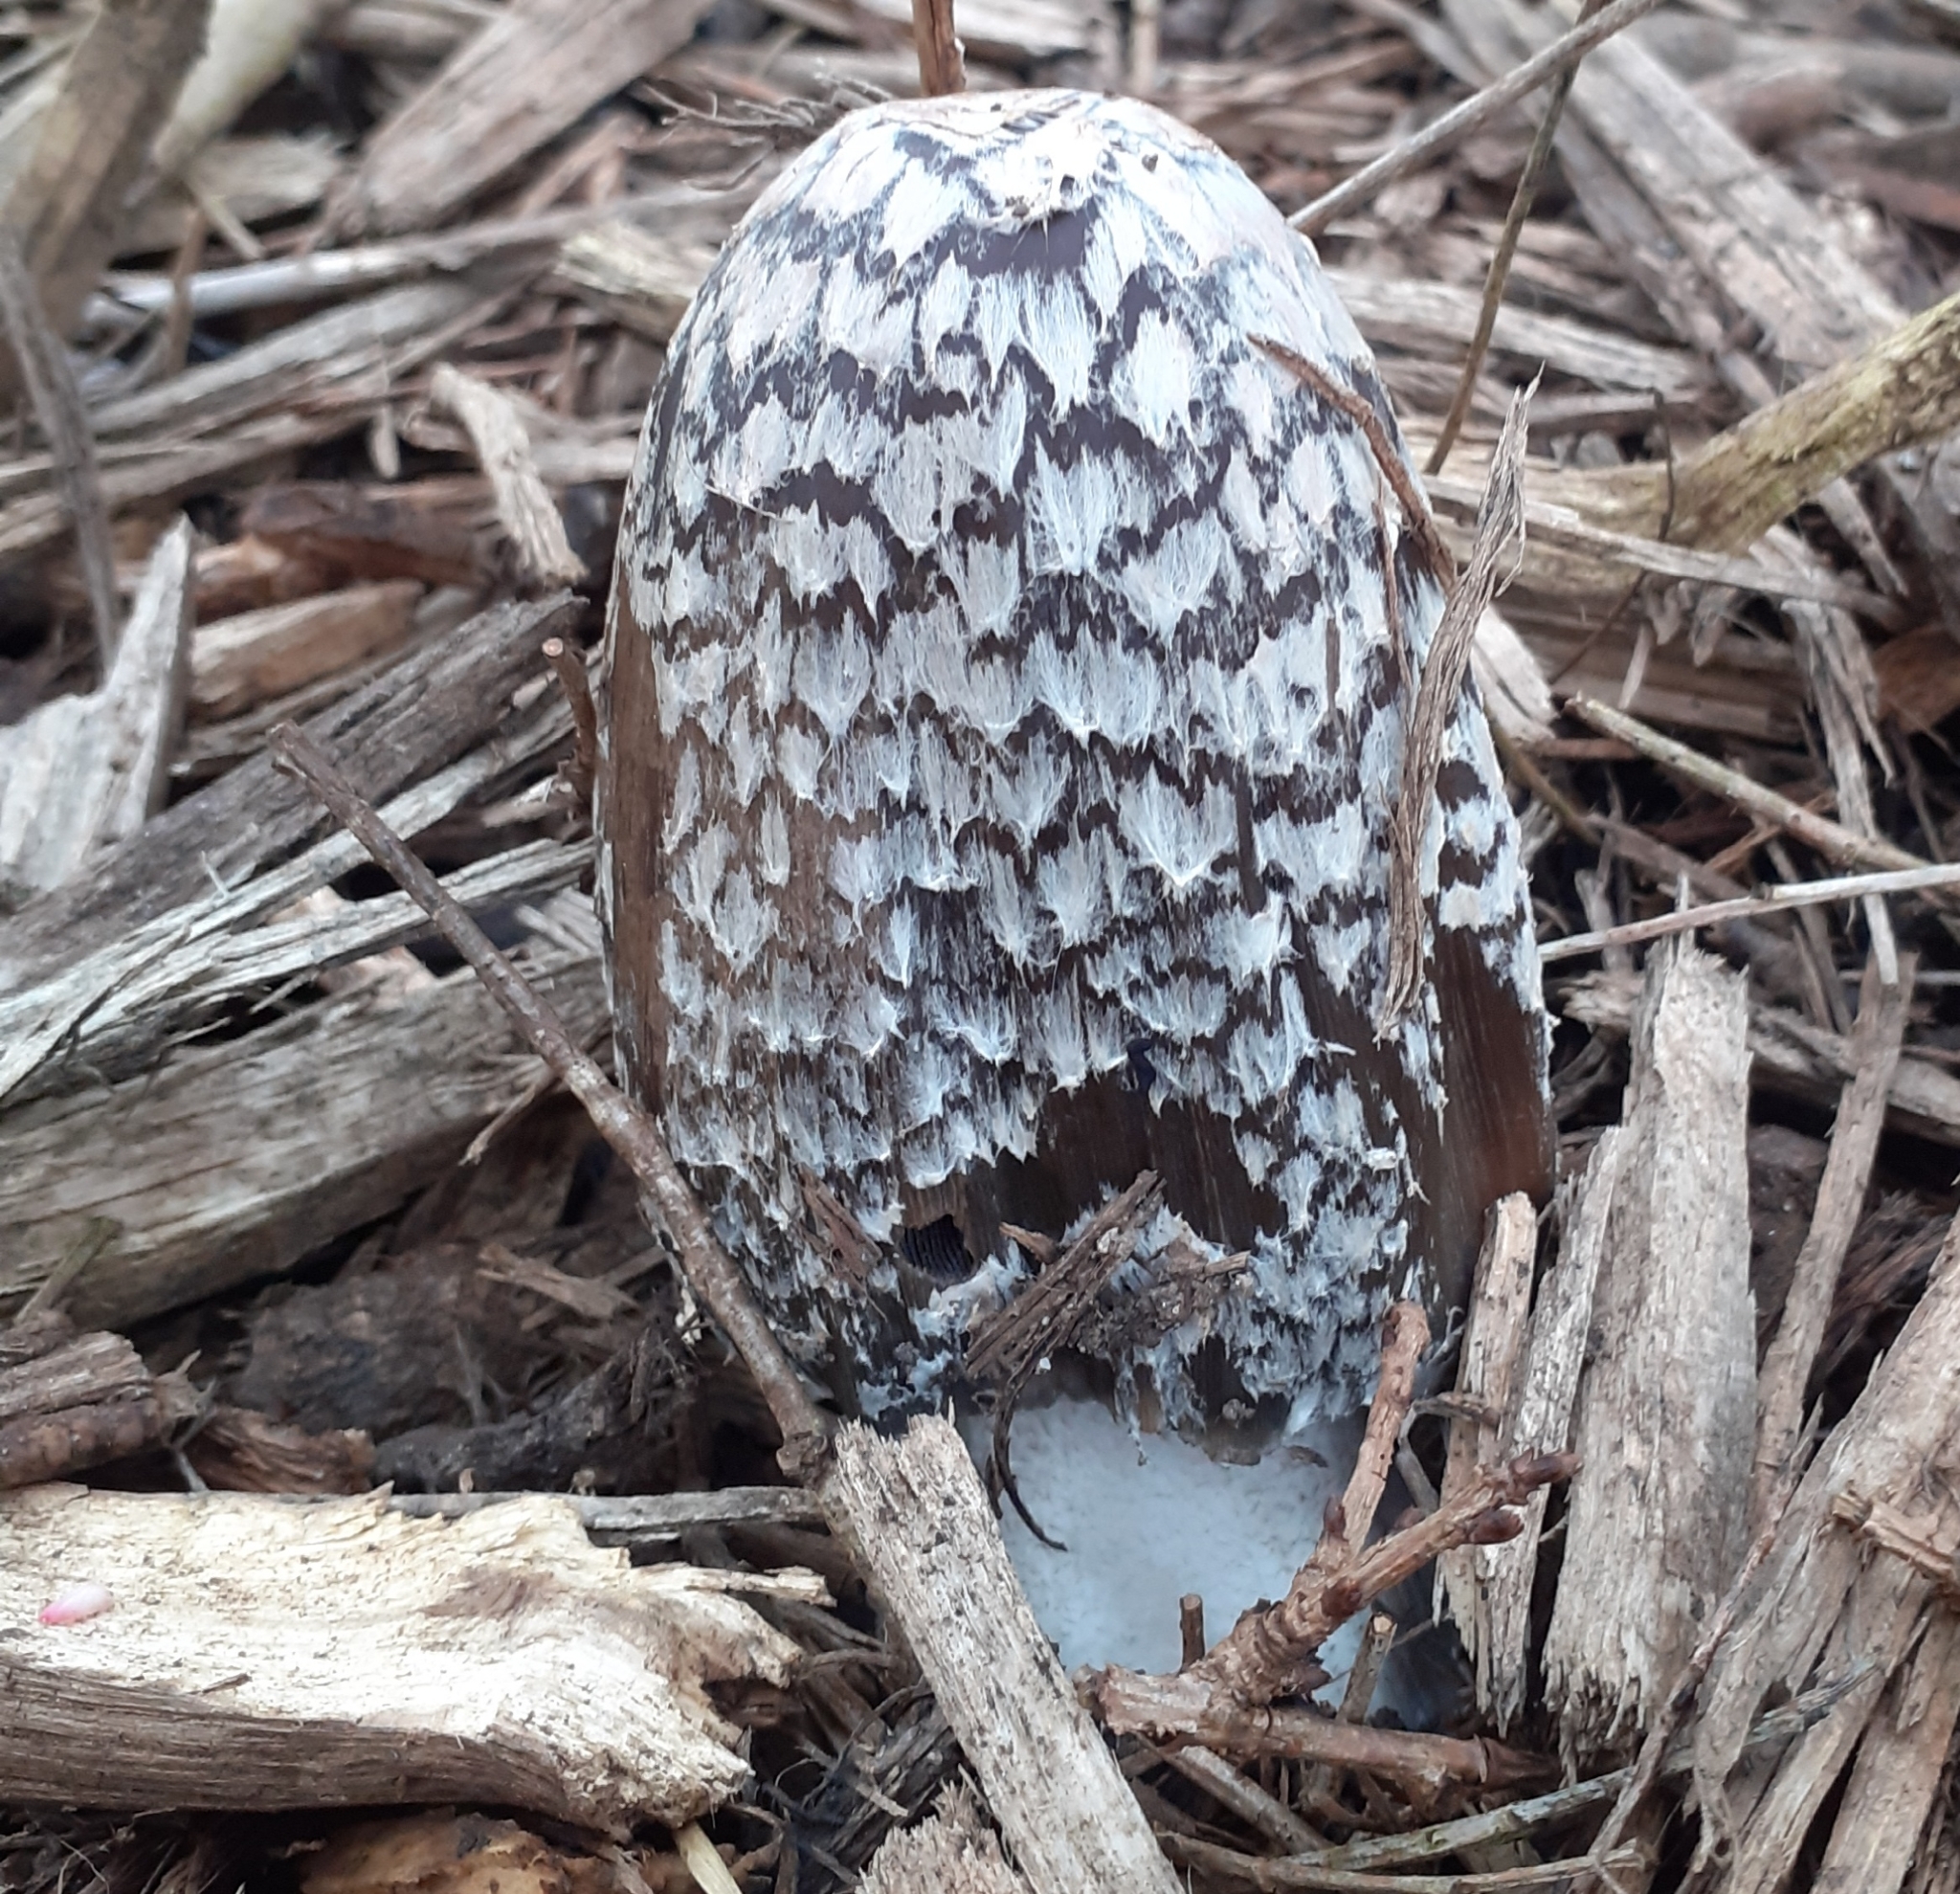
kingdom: Fungi
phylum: Basidiomycota
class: Agaricomycetes
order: Agaricales
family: Psathyrellaceae
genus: Coprinopsis
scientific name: Coprinopsis picacea
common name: Magpie inkcap
